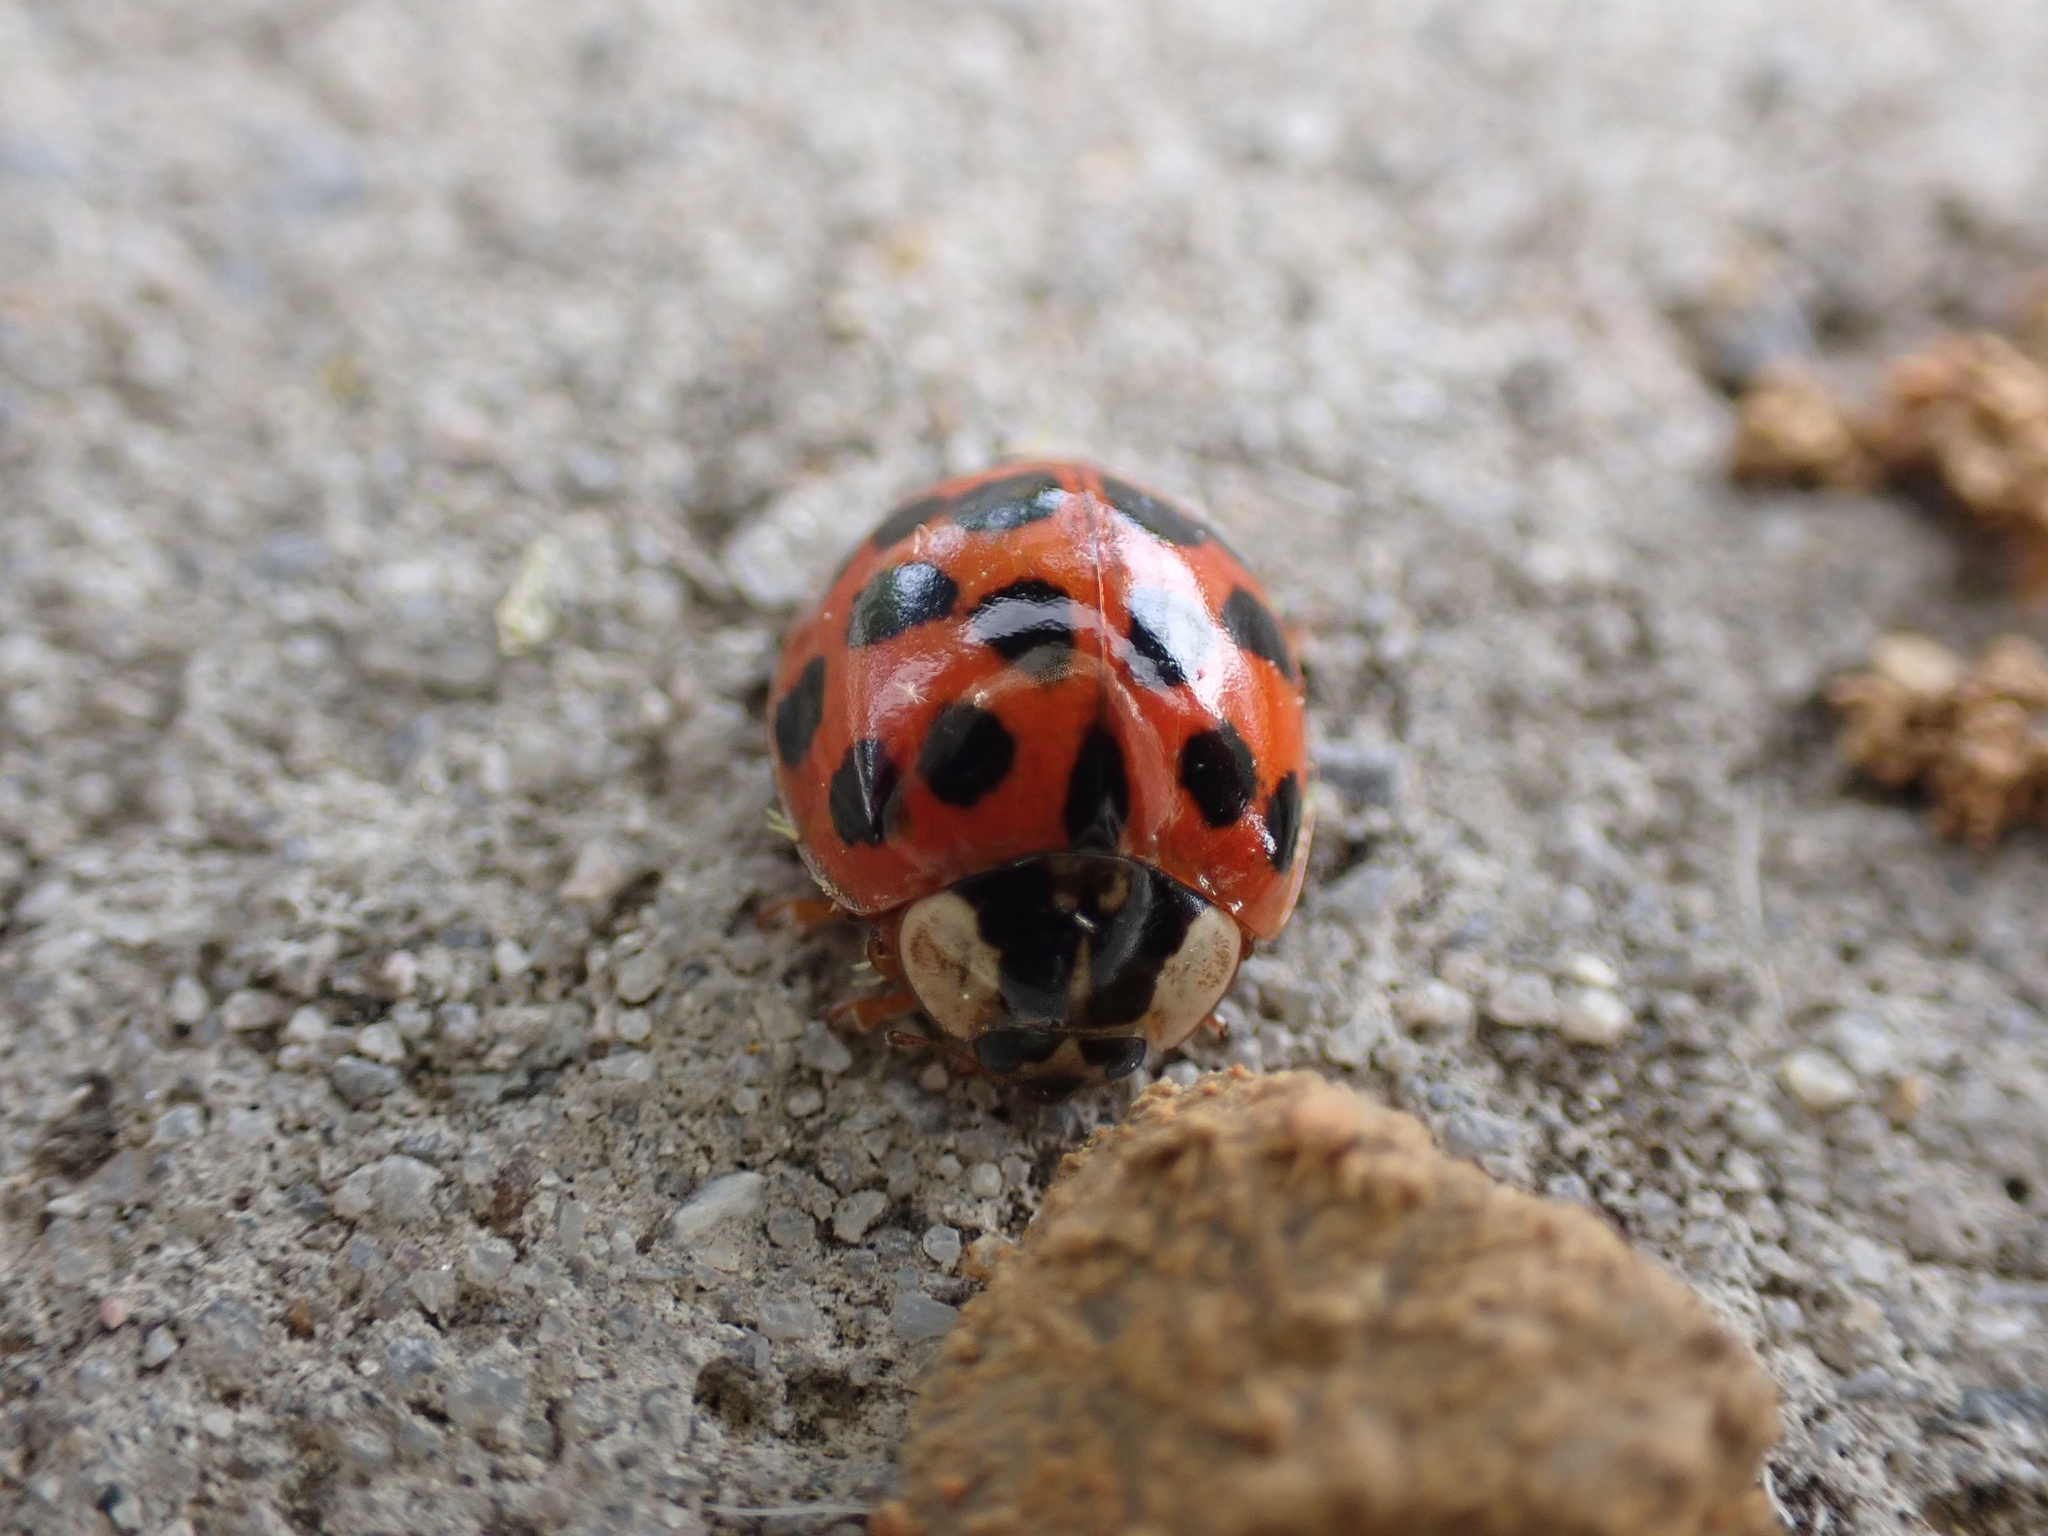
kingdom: Animalia
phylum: Arthropoda
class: Insecta
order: Coleoptera
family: Coccinellidae
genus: Harmonia
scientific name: Harmonia axyridis
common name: Harlequin ladybird
